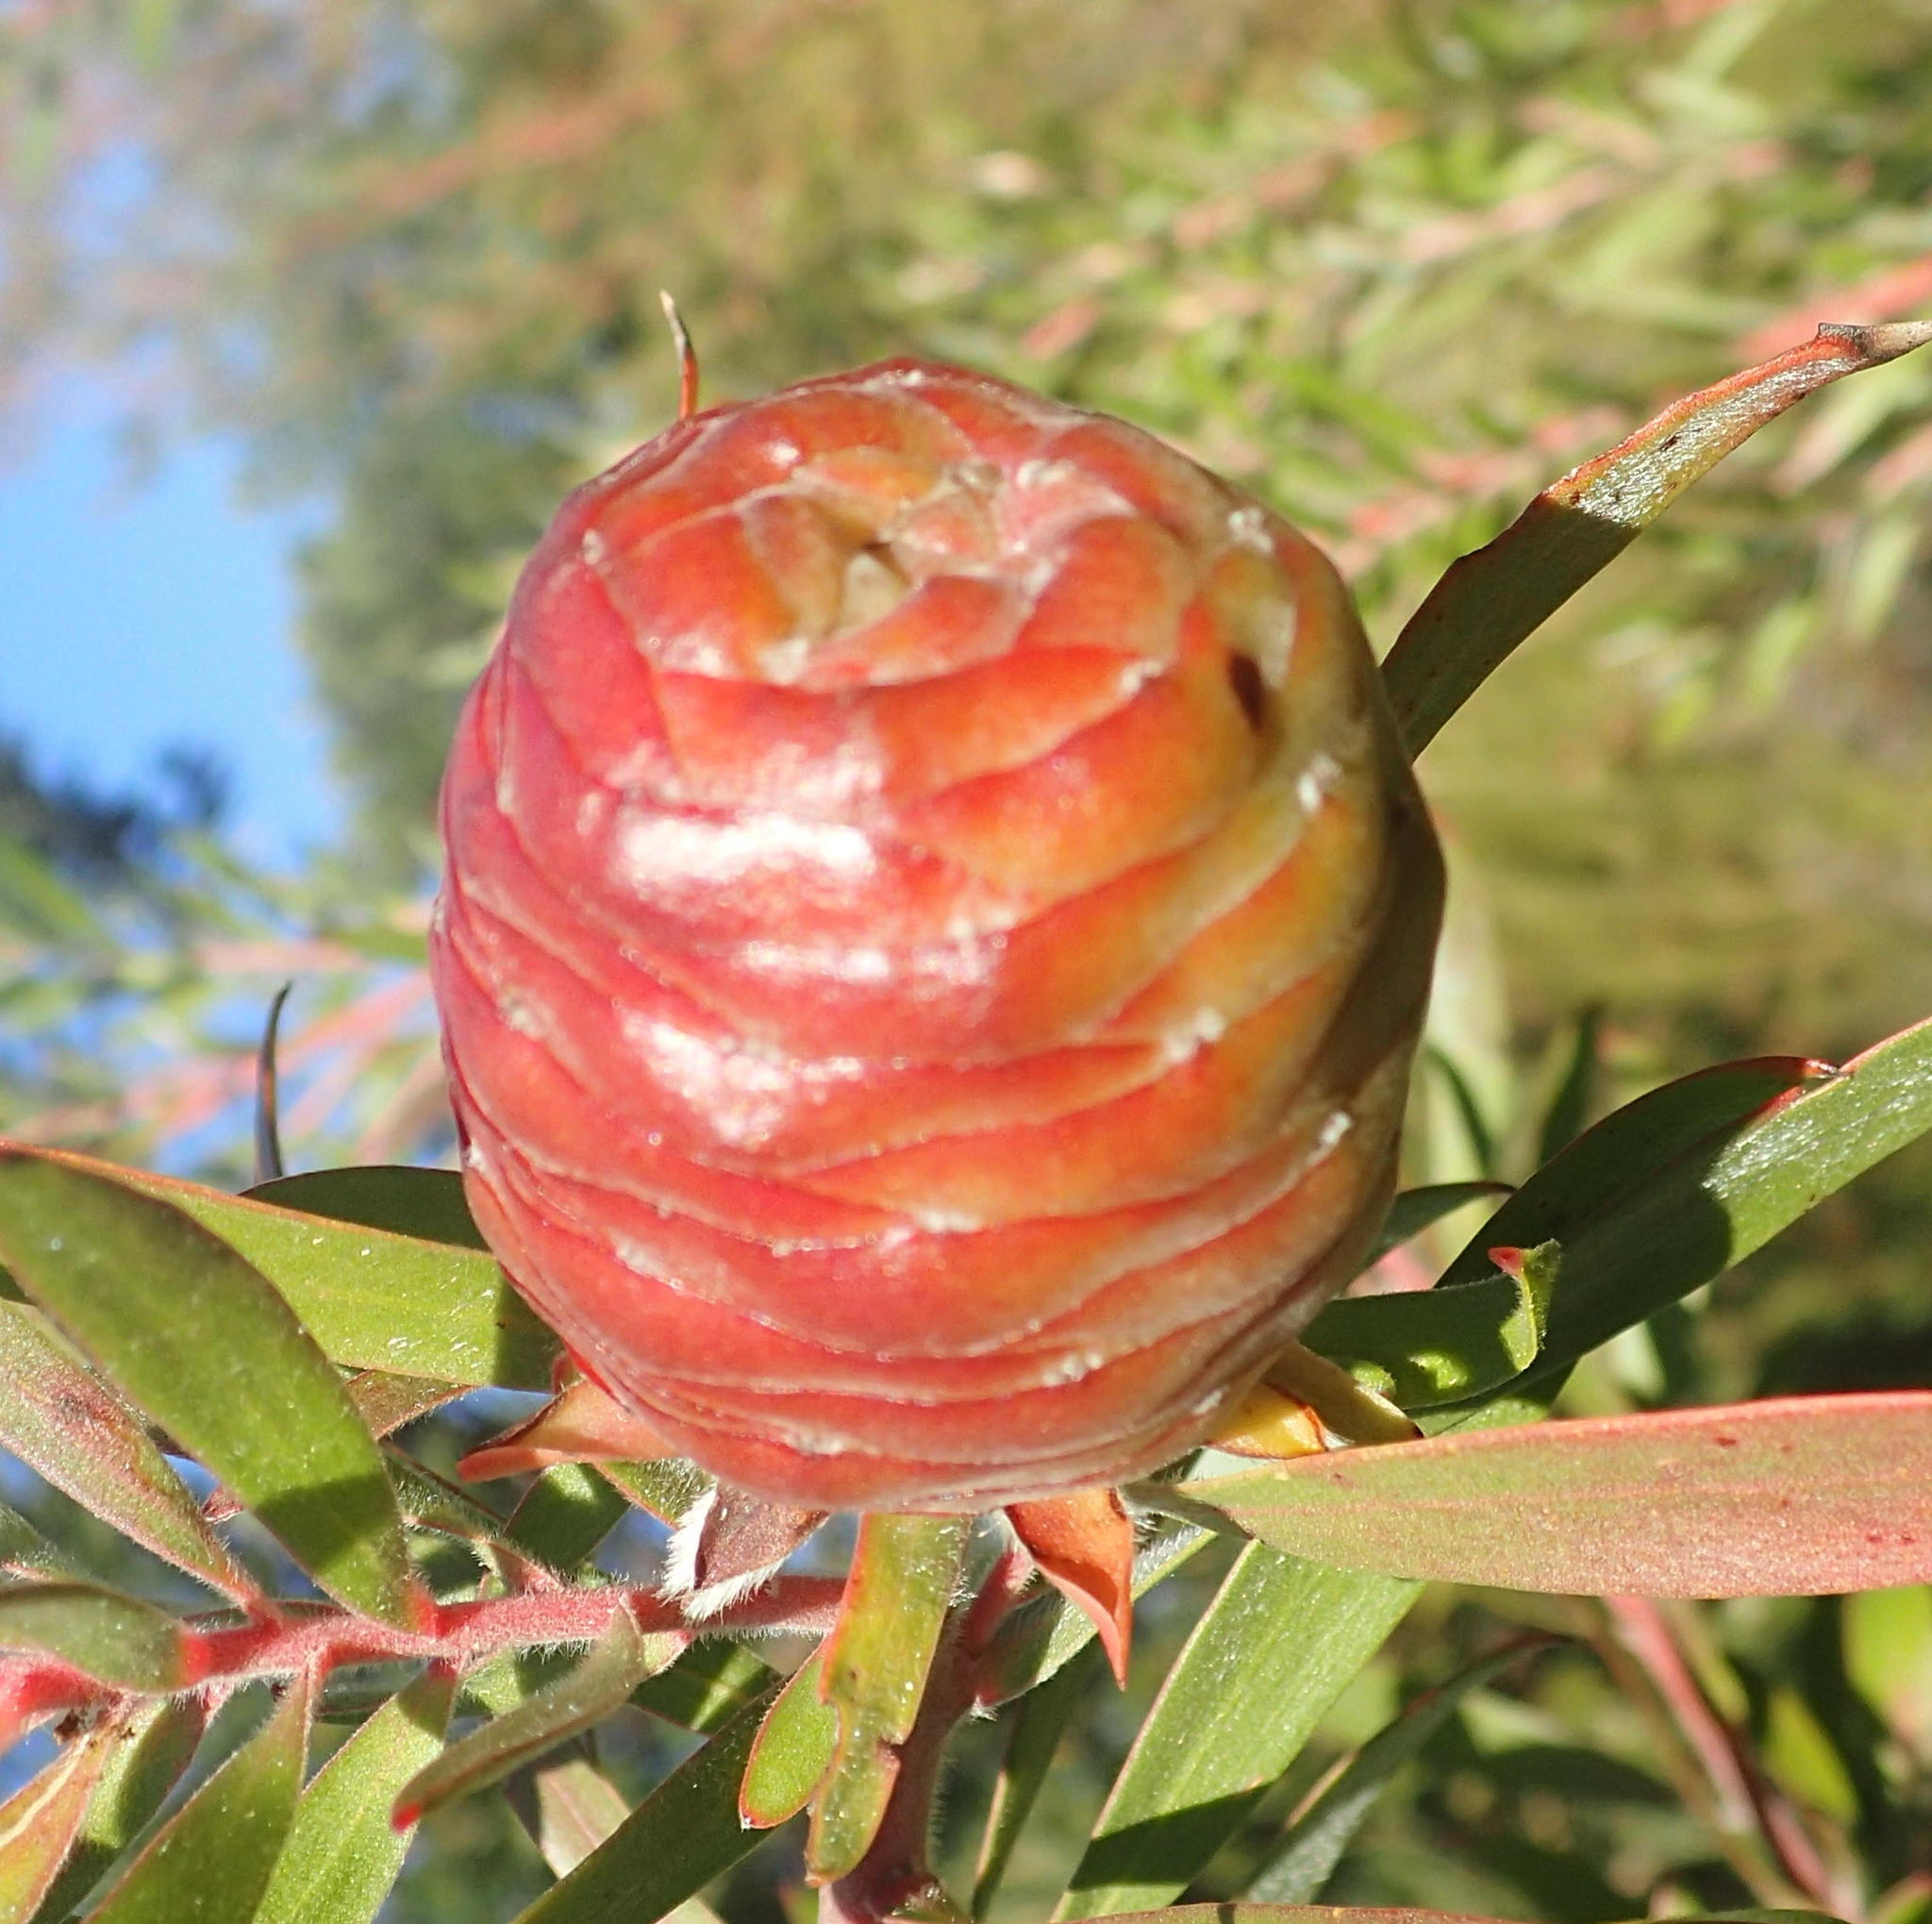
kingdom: Plantae
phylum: Tracheophyta
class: Magnoliopsida
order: Proteales
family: Proteaceae
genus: Leucadendron
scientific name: Leucadendron conicum
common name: Garden route conebush
